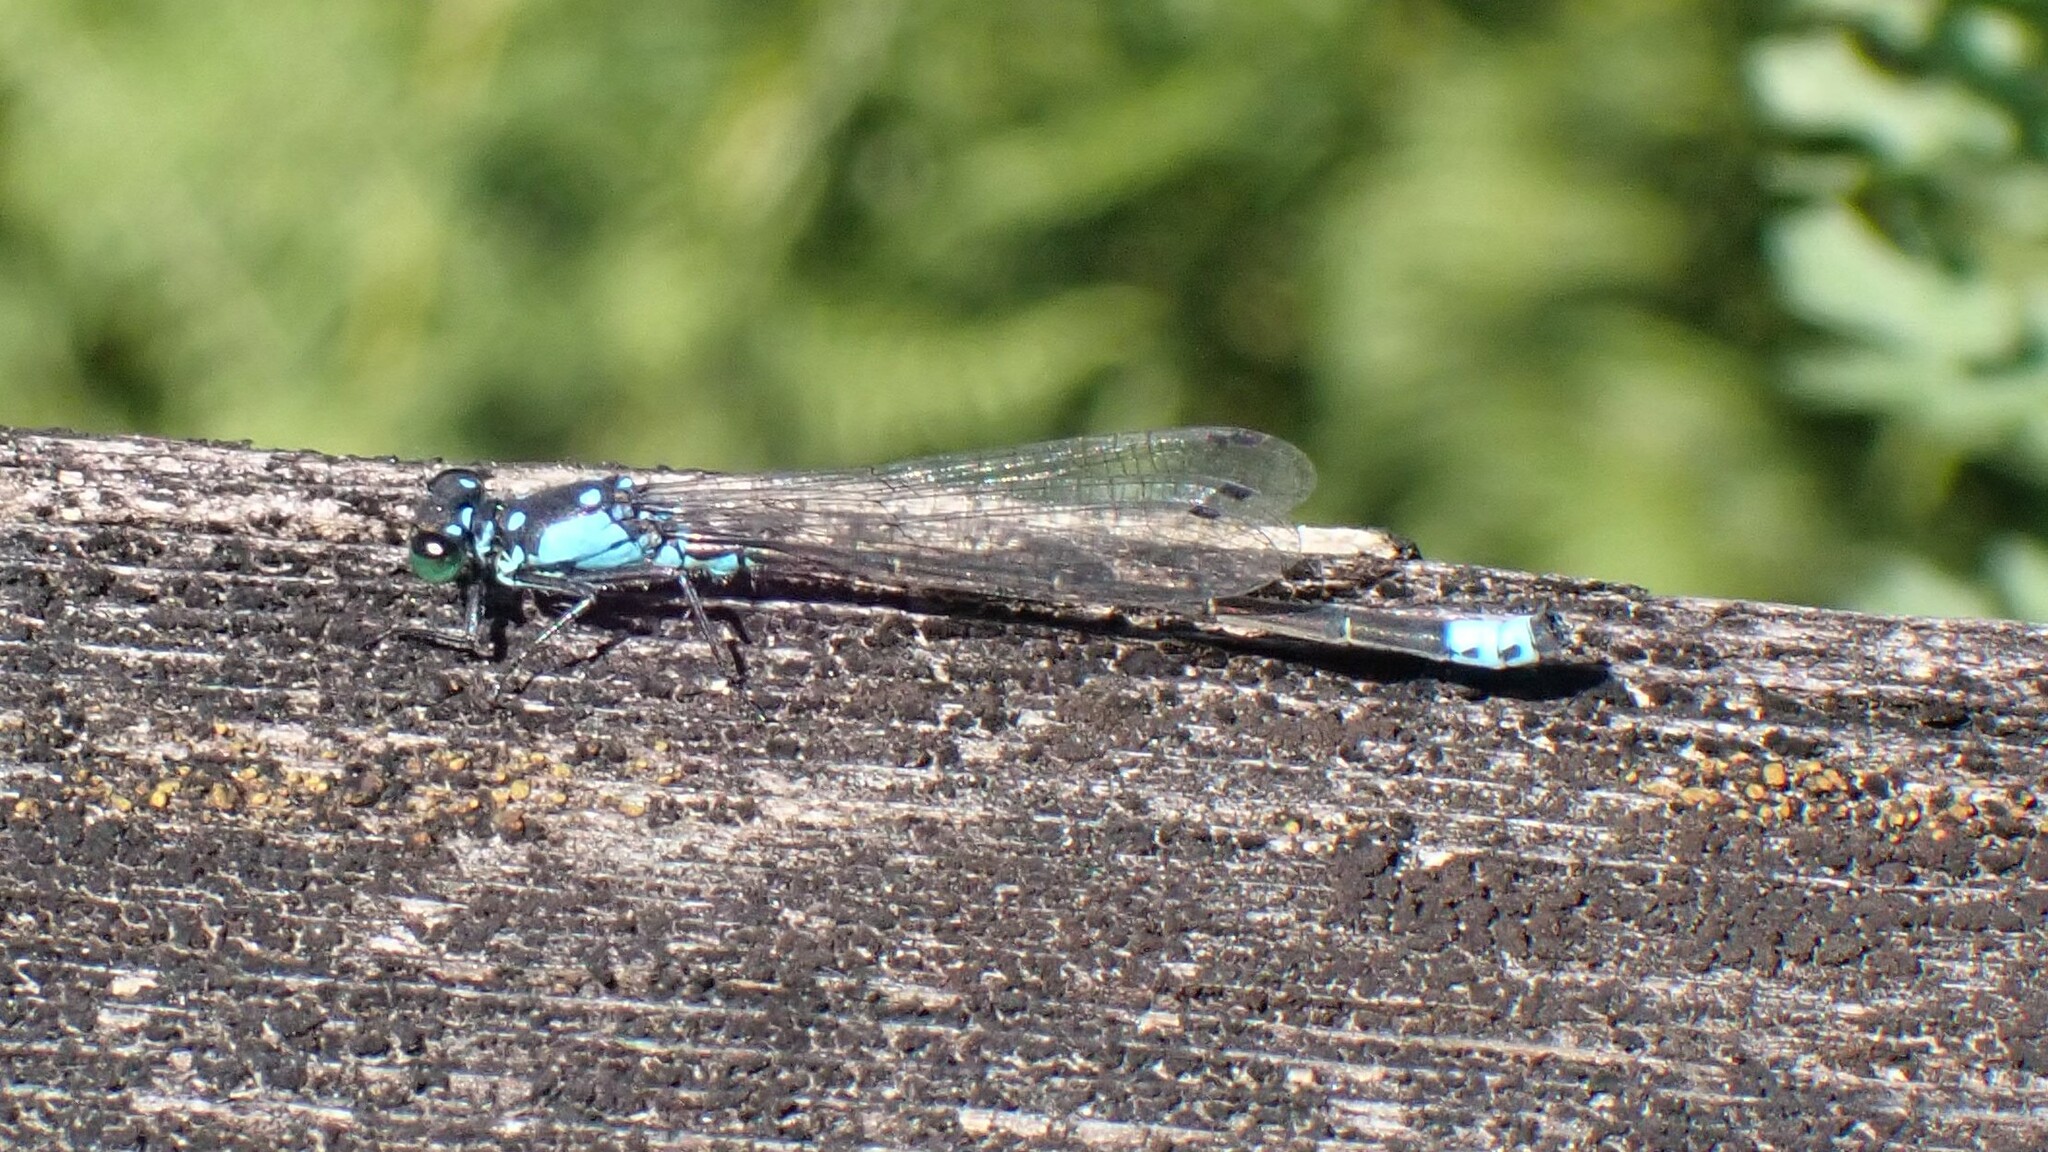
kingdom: Animalia
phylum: Arthropoda
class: Insecta
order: Odonata
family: Coenagrionidae
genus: Ischnura
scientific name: Ischnura cervula
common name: Pacific forktail
